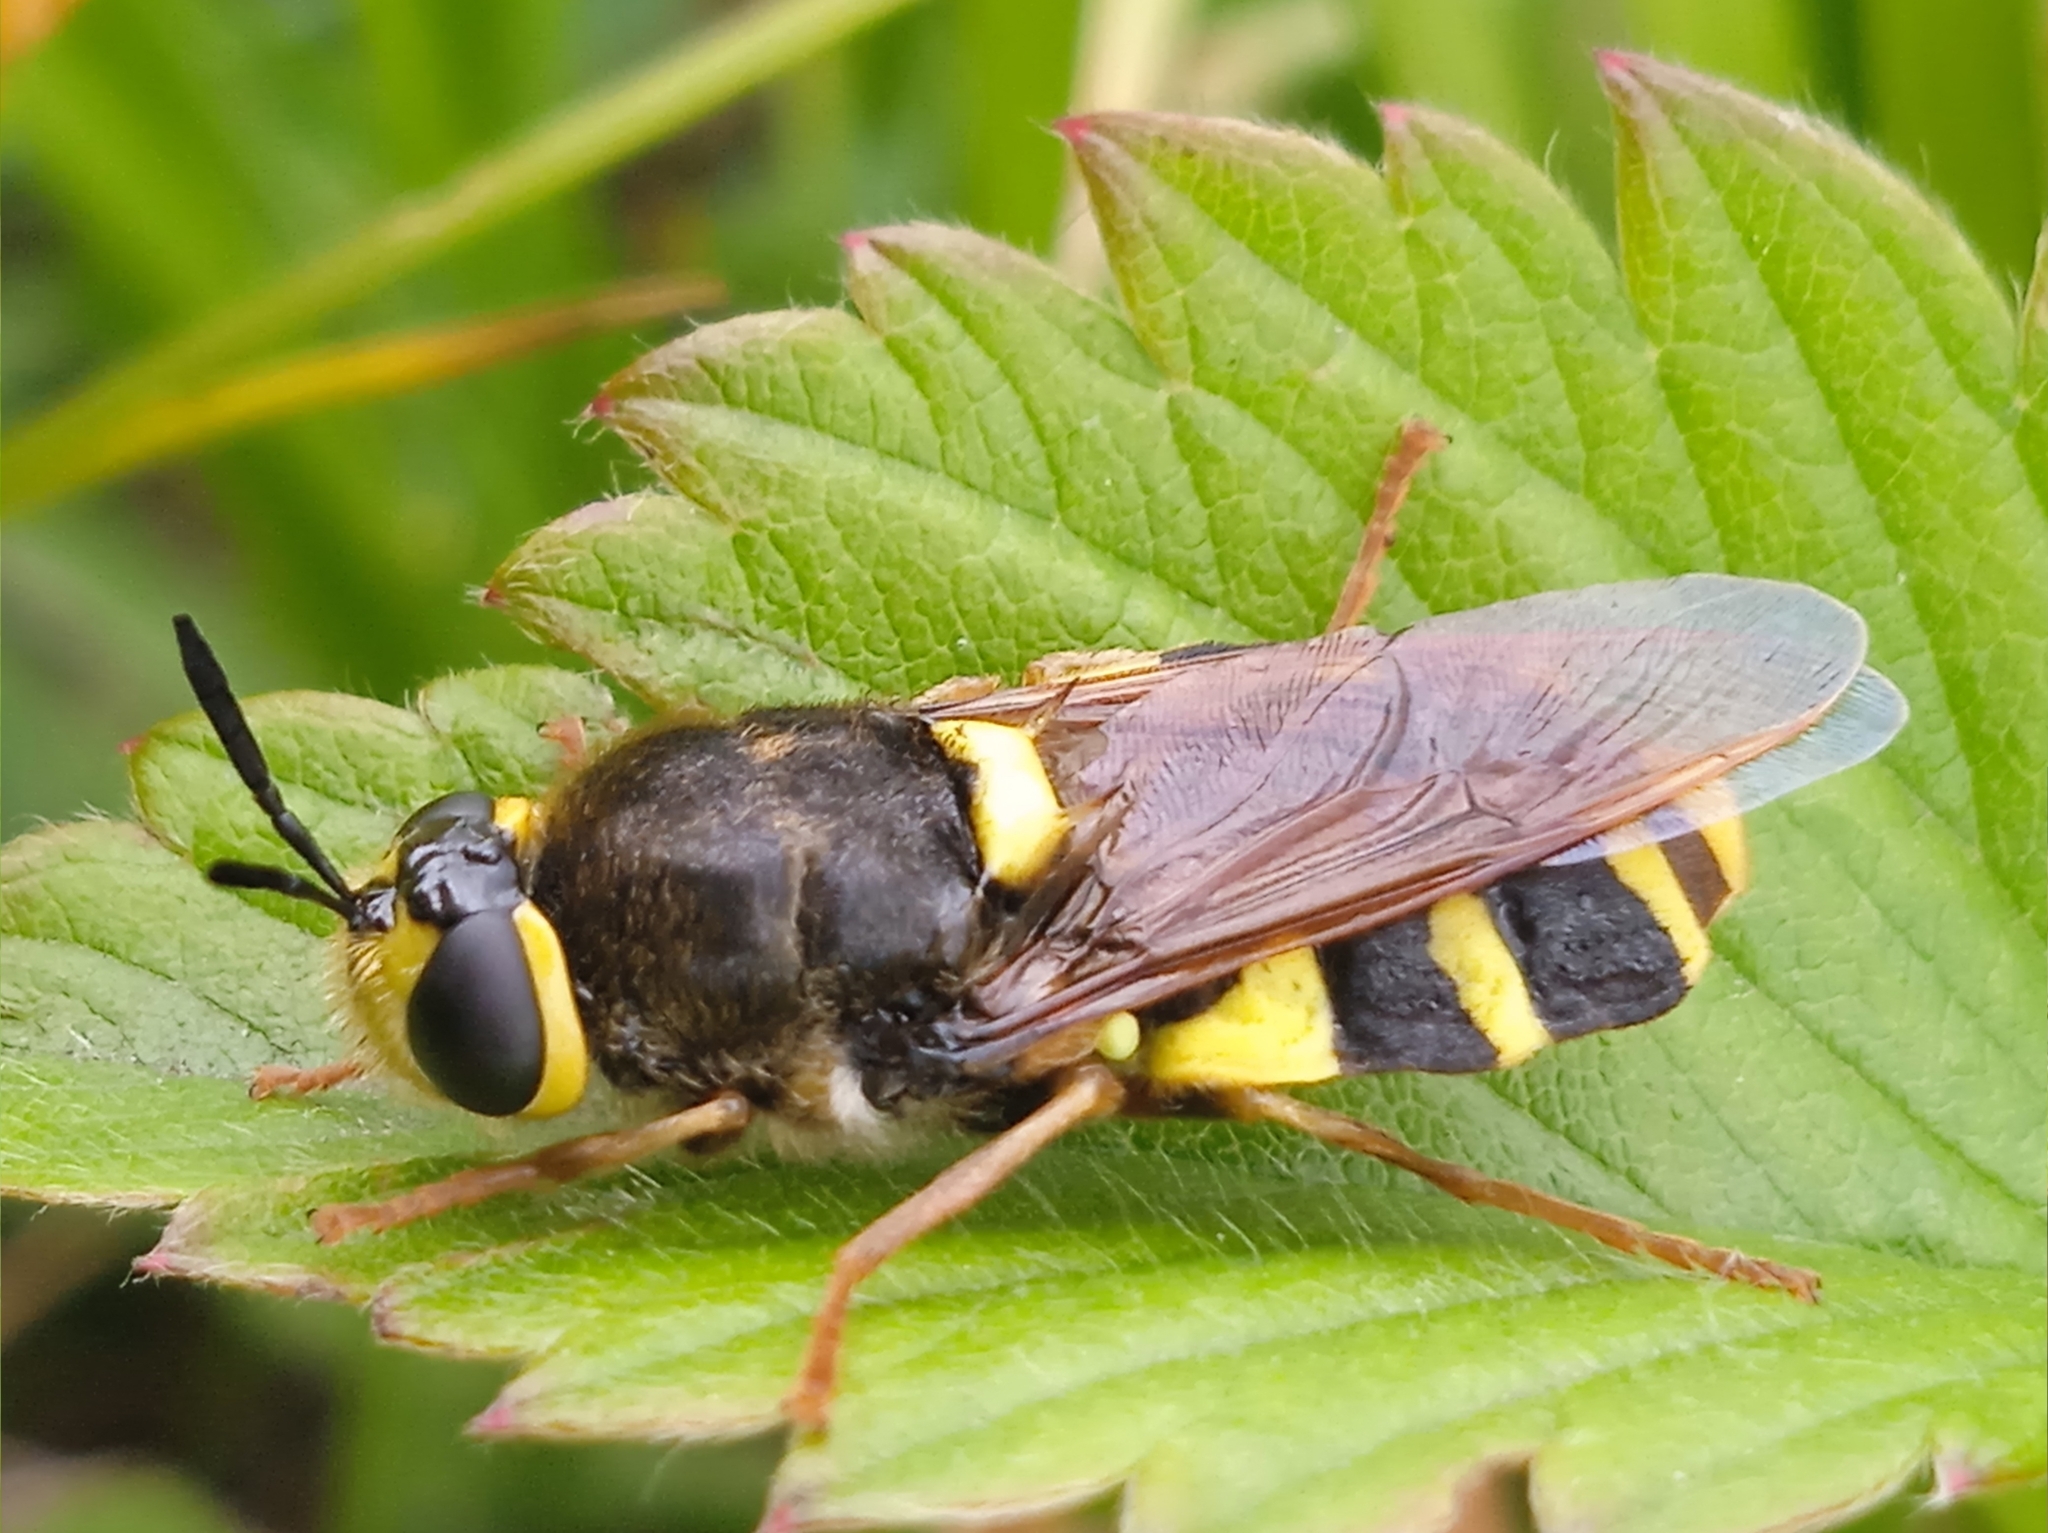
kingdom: Animalia
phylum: Arthropoda
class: Insecta
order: Diptera
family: Stratiomyidae
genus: Stratiomys
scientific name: Stratiomys chamaeleon
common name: Clubbed general
